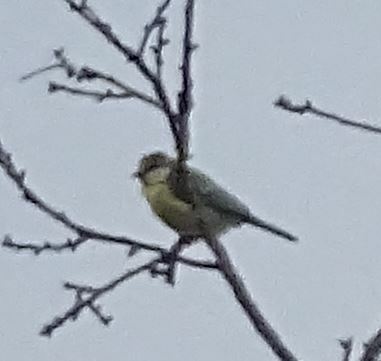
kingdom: Animalia
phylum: Chordata
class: Aves
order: Passeriformes
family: Paridae
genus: Cyanistes
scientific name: Cyanistes caeruleus
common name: Eurasian blue tit
